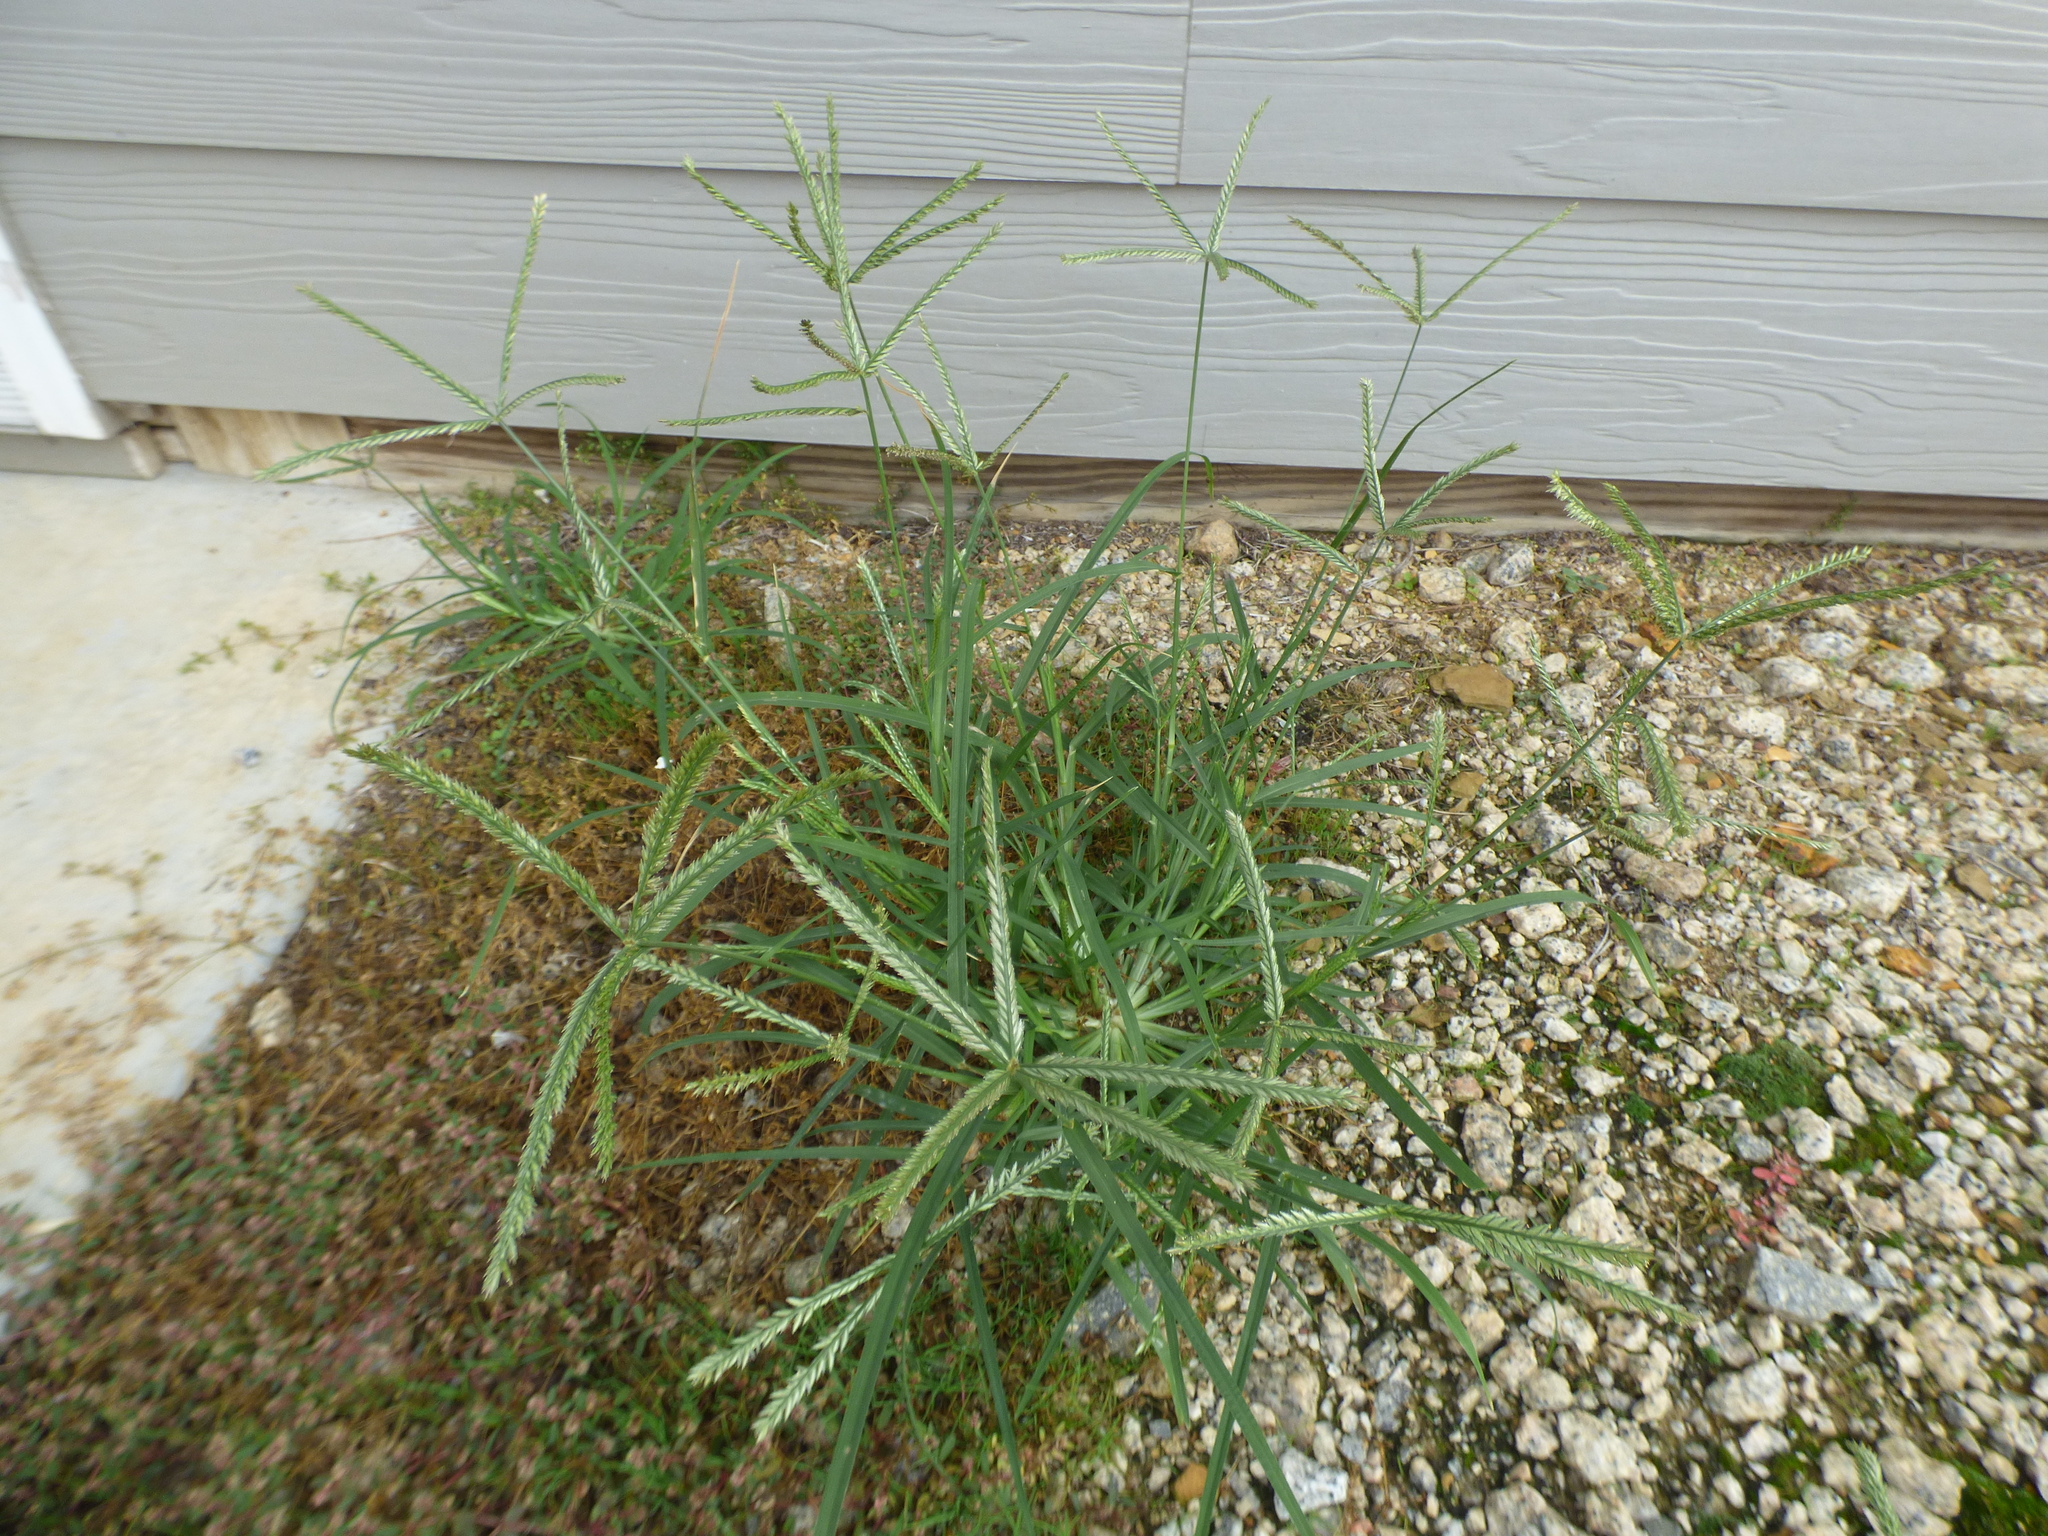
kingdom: Plantae
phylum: Tracheophyta
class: Liliopsida
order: Poales
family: Poaceae
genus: Eleusine
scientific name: Eleusine indica
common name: Yard-grass
